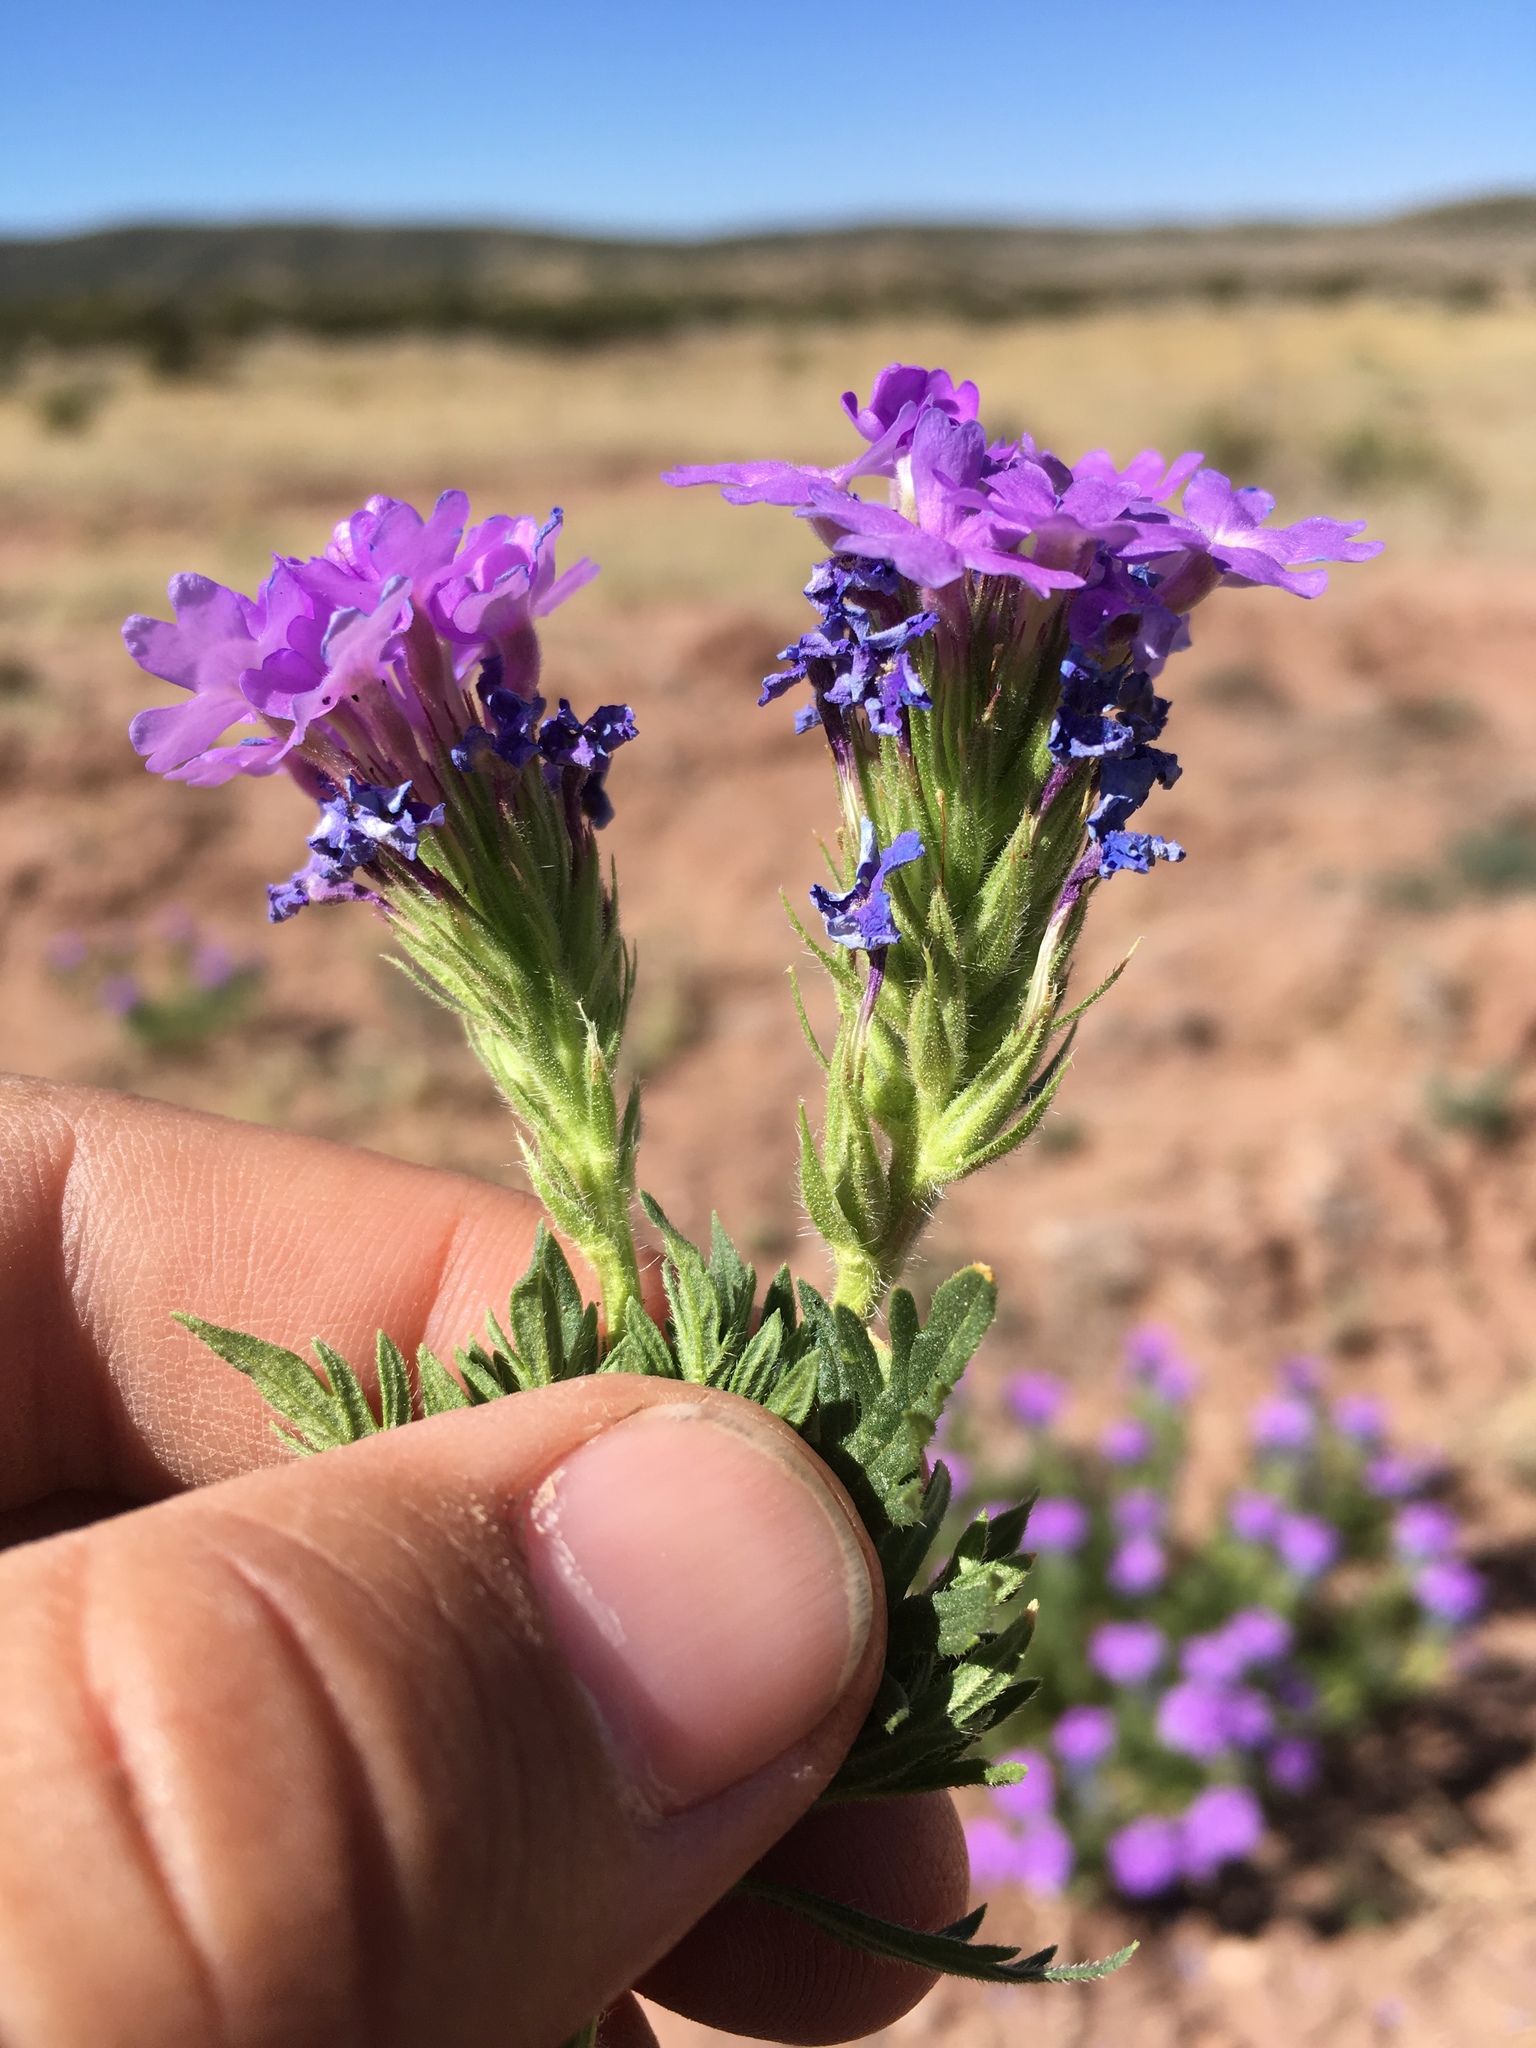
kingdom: Plantae
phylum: Tracheophyta
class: Magnoliopsida
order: Lamiales
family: Verbenaceae
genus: Verbena
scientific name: Verbena bipinnatifida
